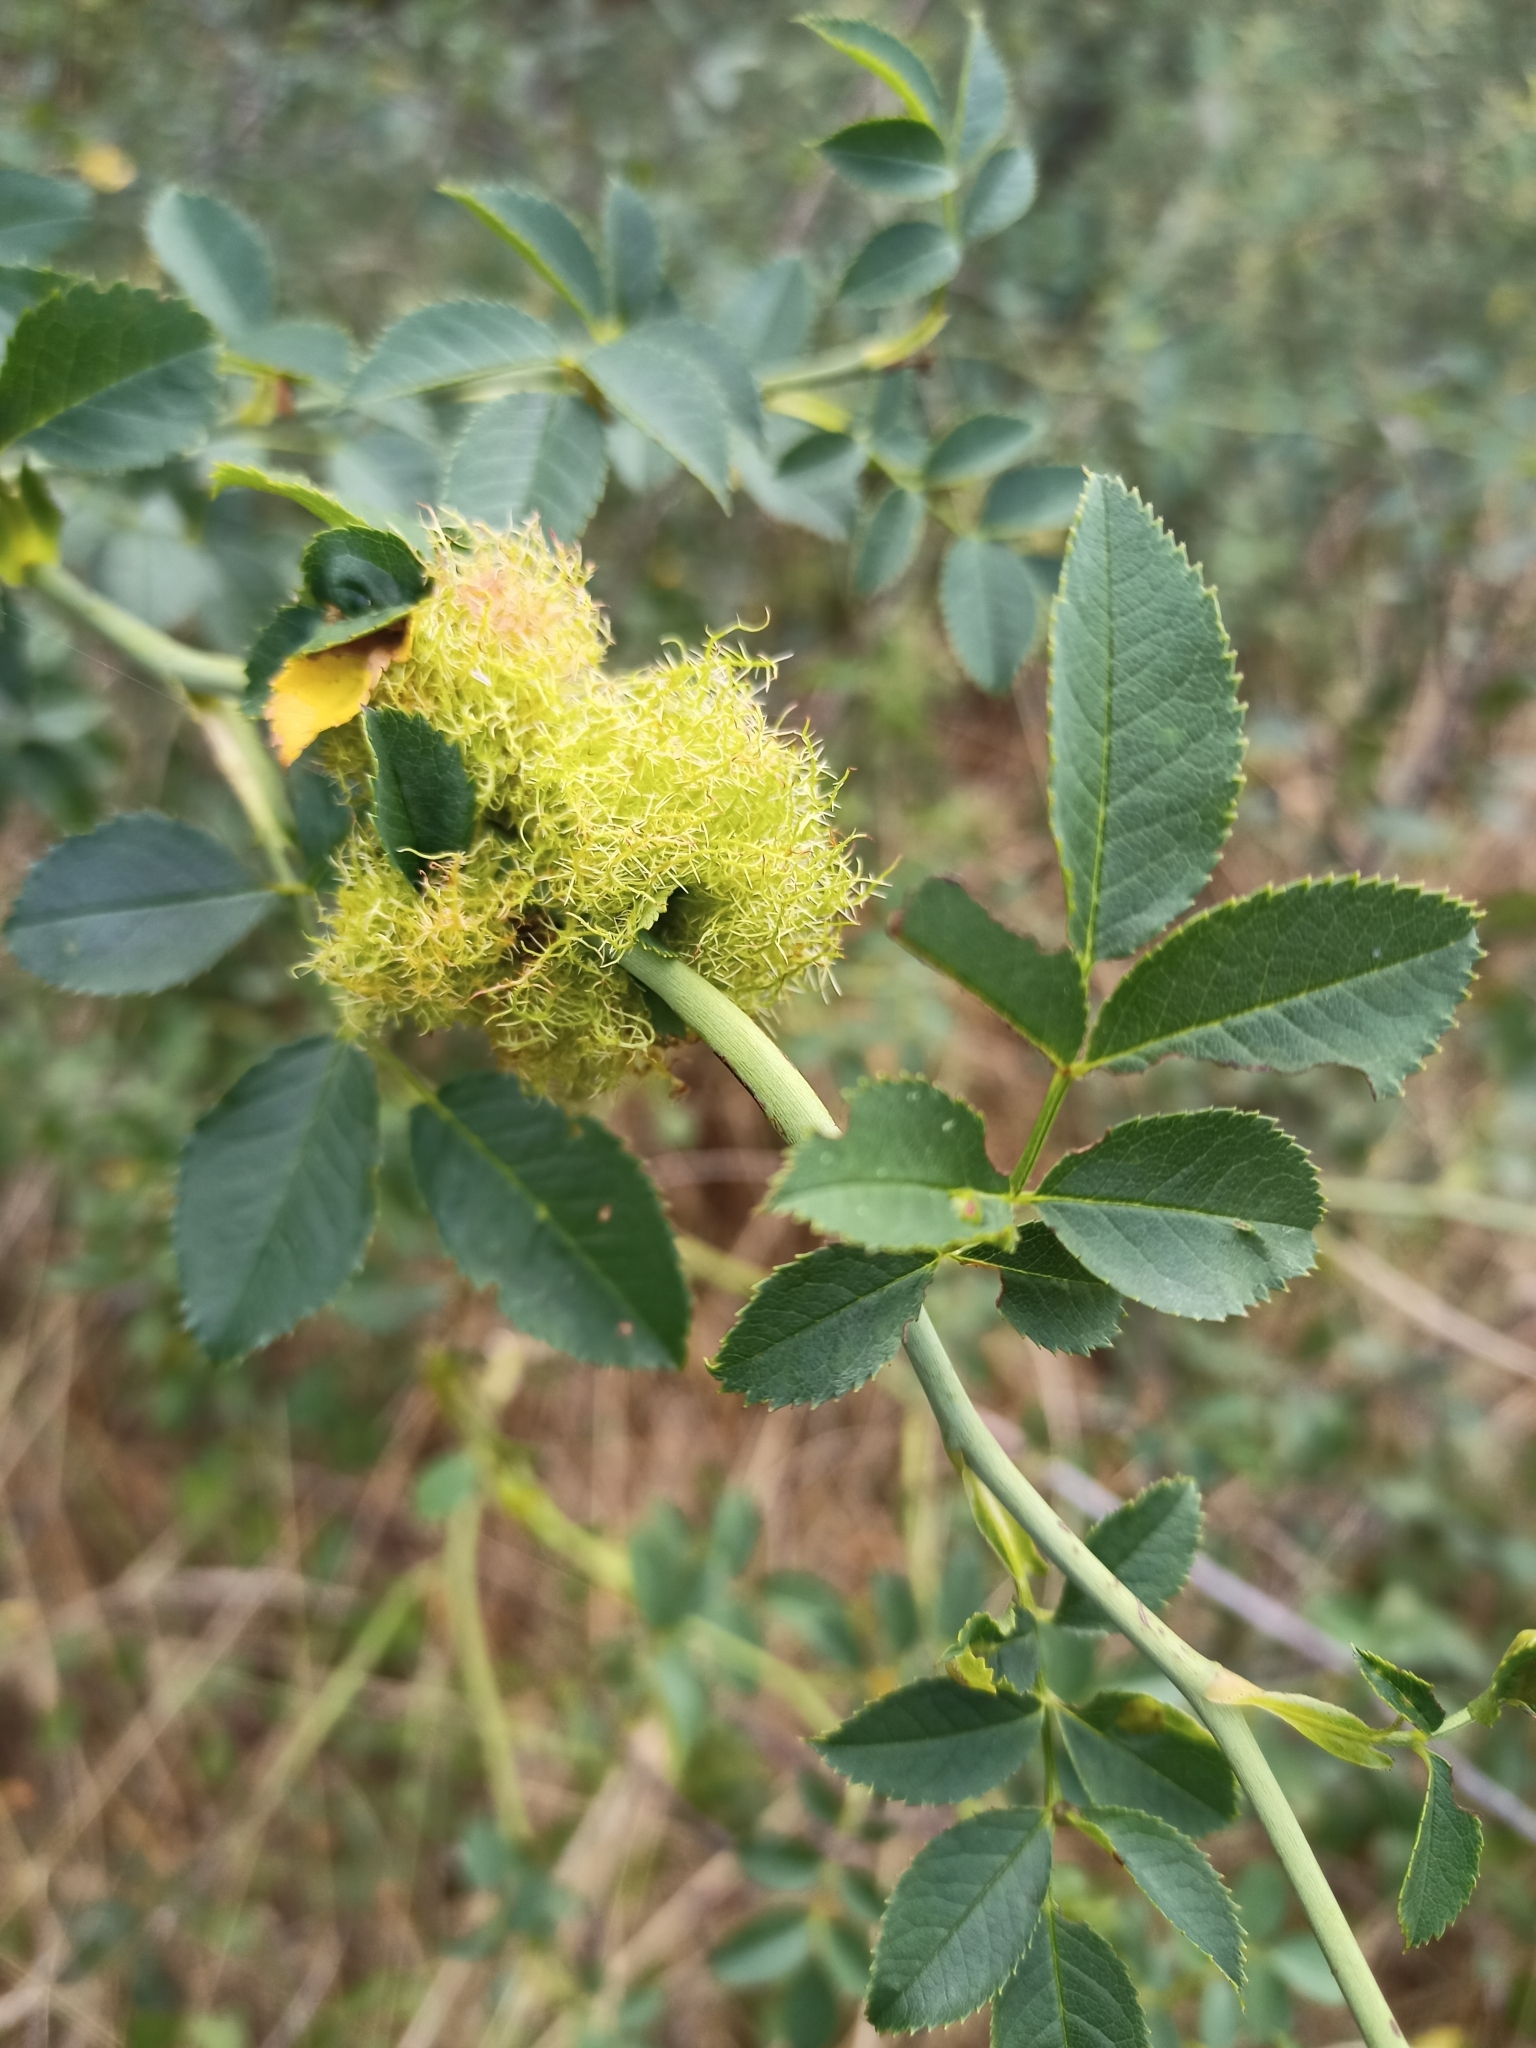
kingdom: Animalia
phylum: Arthropoda
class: Insecta
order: Hymenoptera
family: Cynipidae
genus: Diplolepis
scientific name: Diplolepis rosae
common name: Bedeguar gall
